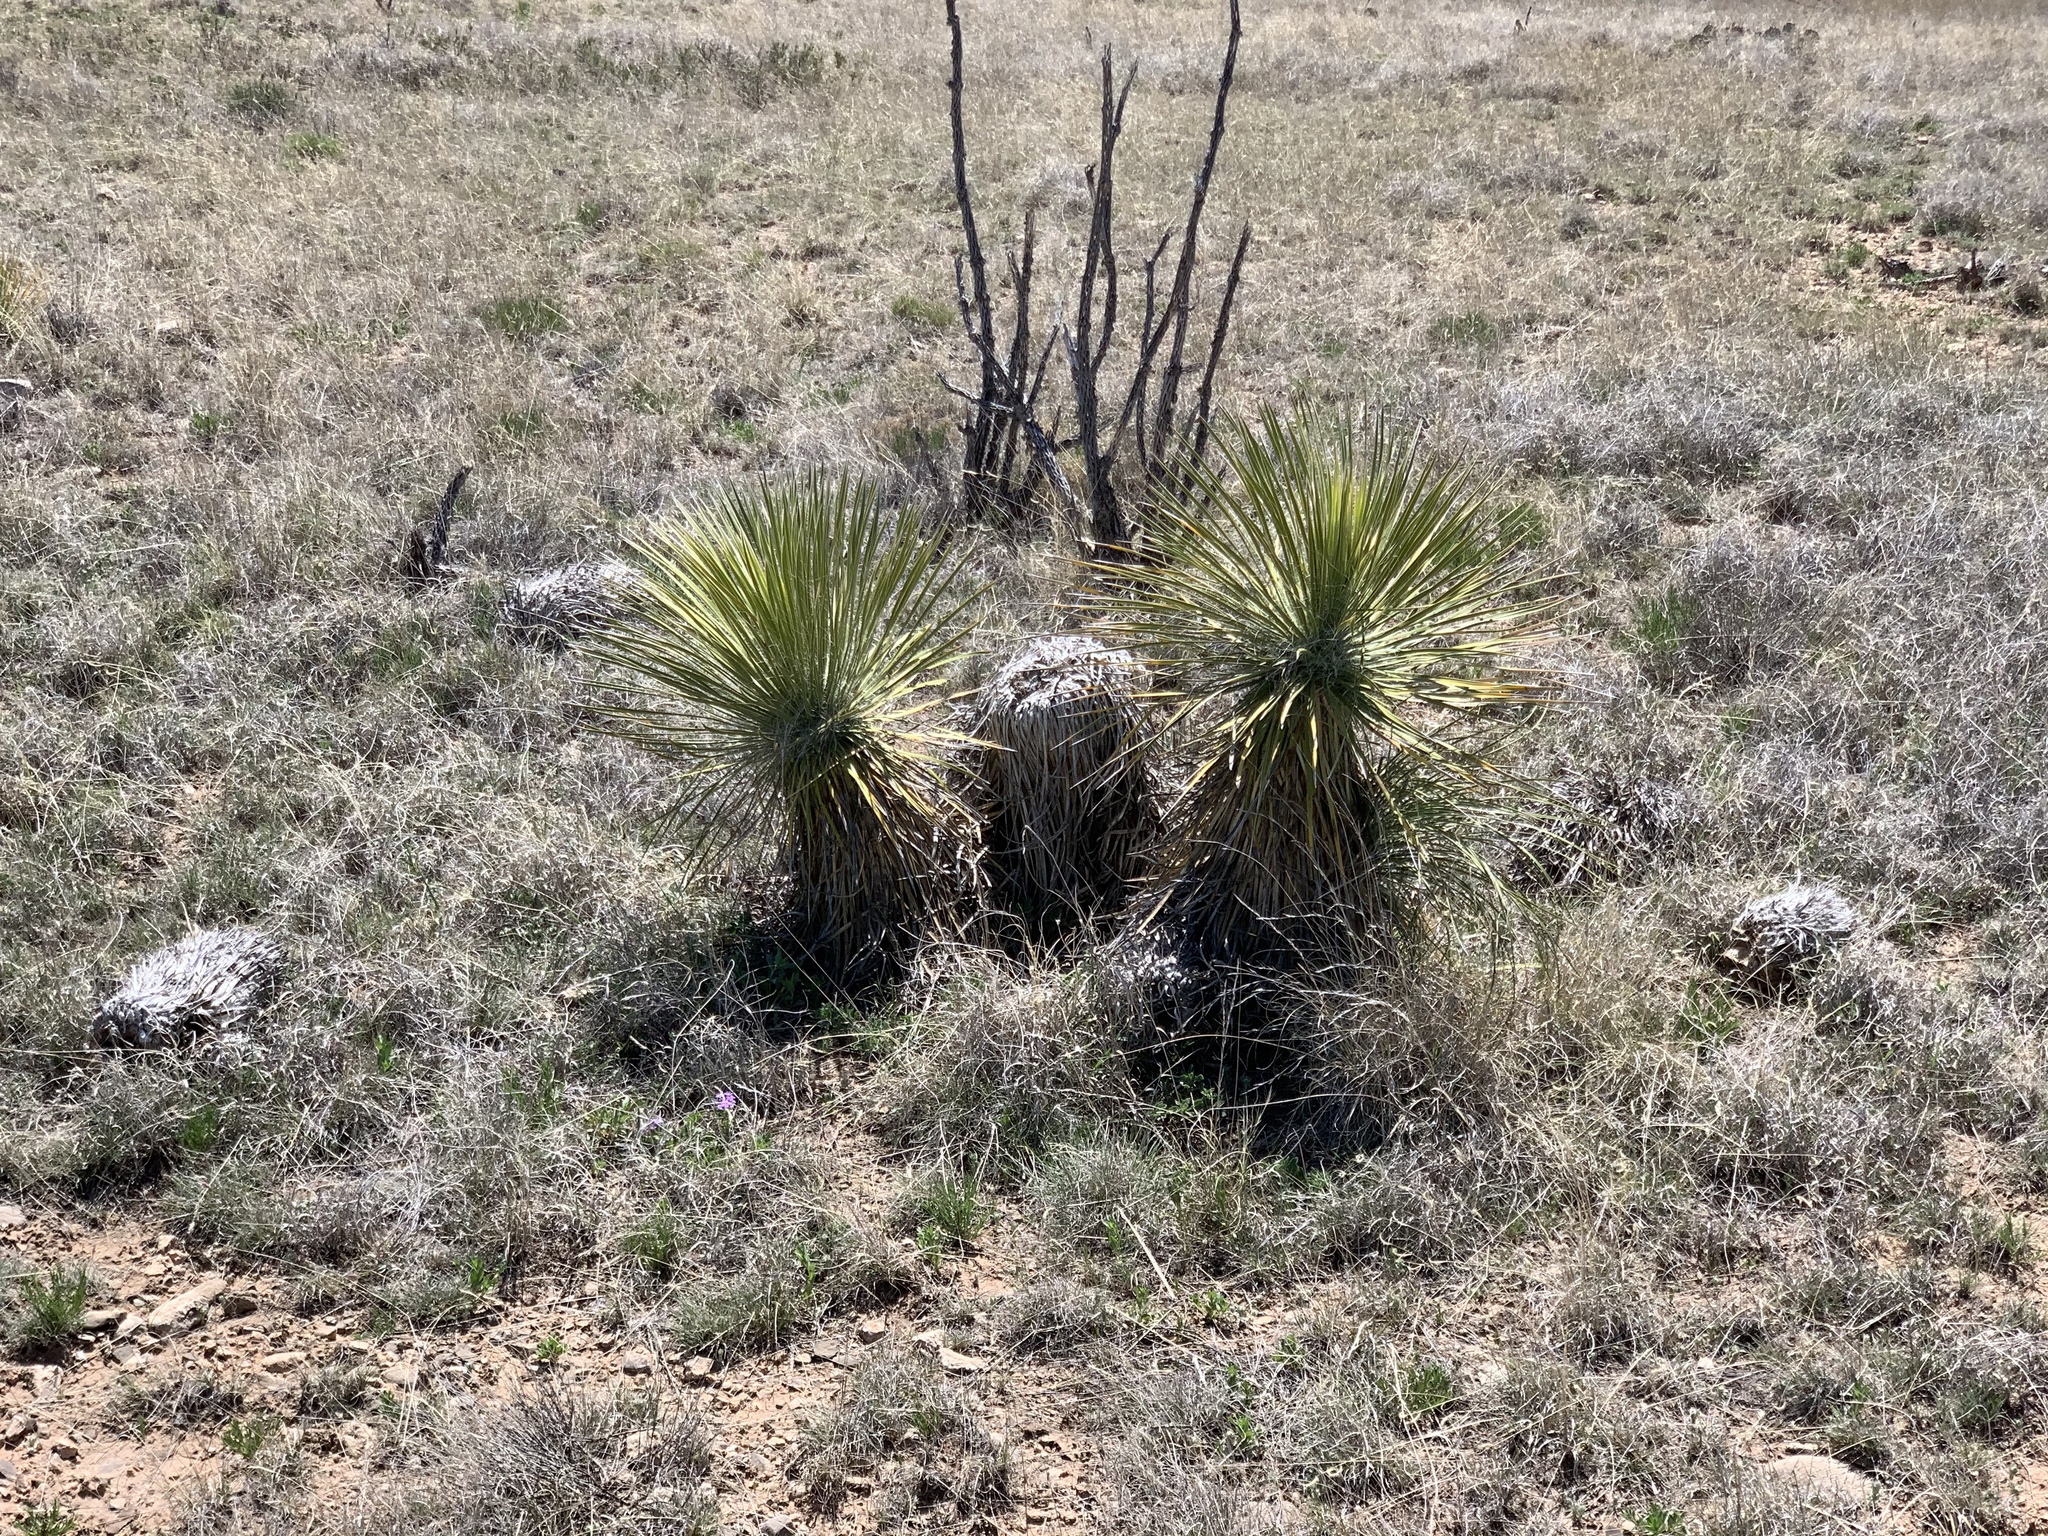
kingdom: Plantae
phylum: Tracheophyta
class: Liliopsida
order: Asparagales
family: Asparagaceae
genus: Yucca
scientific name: Yucca elata
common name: Palmella
